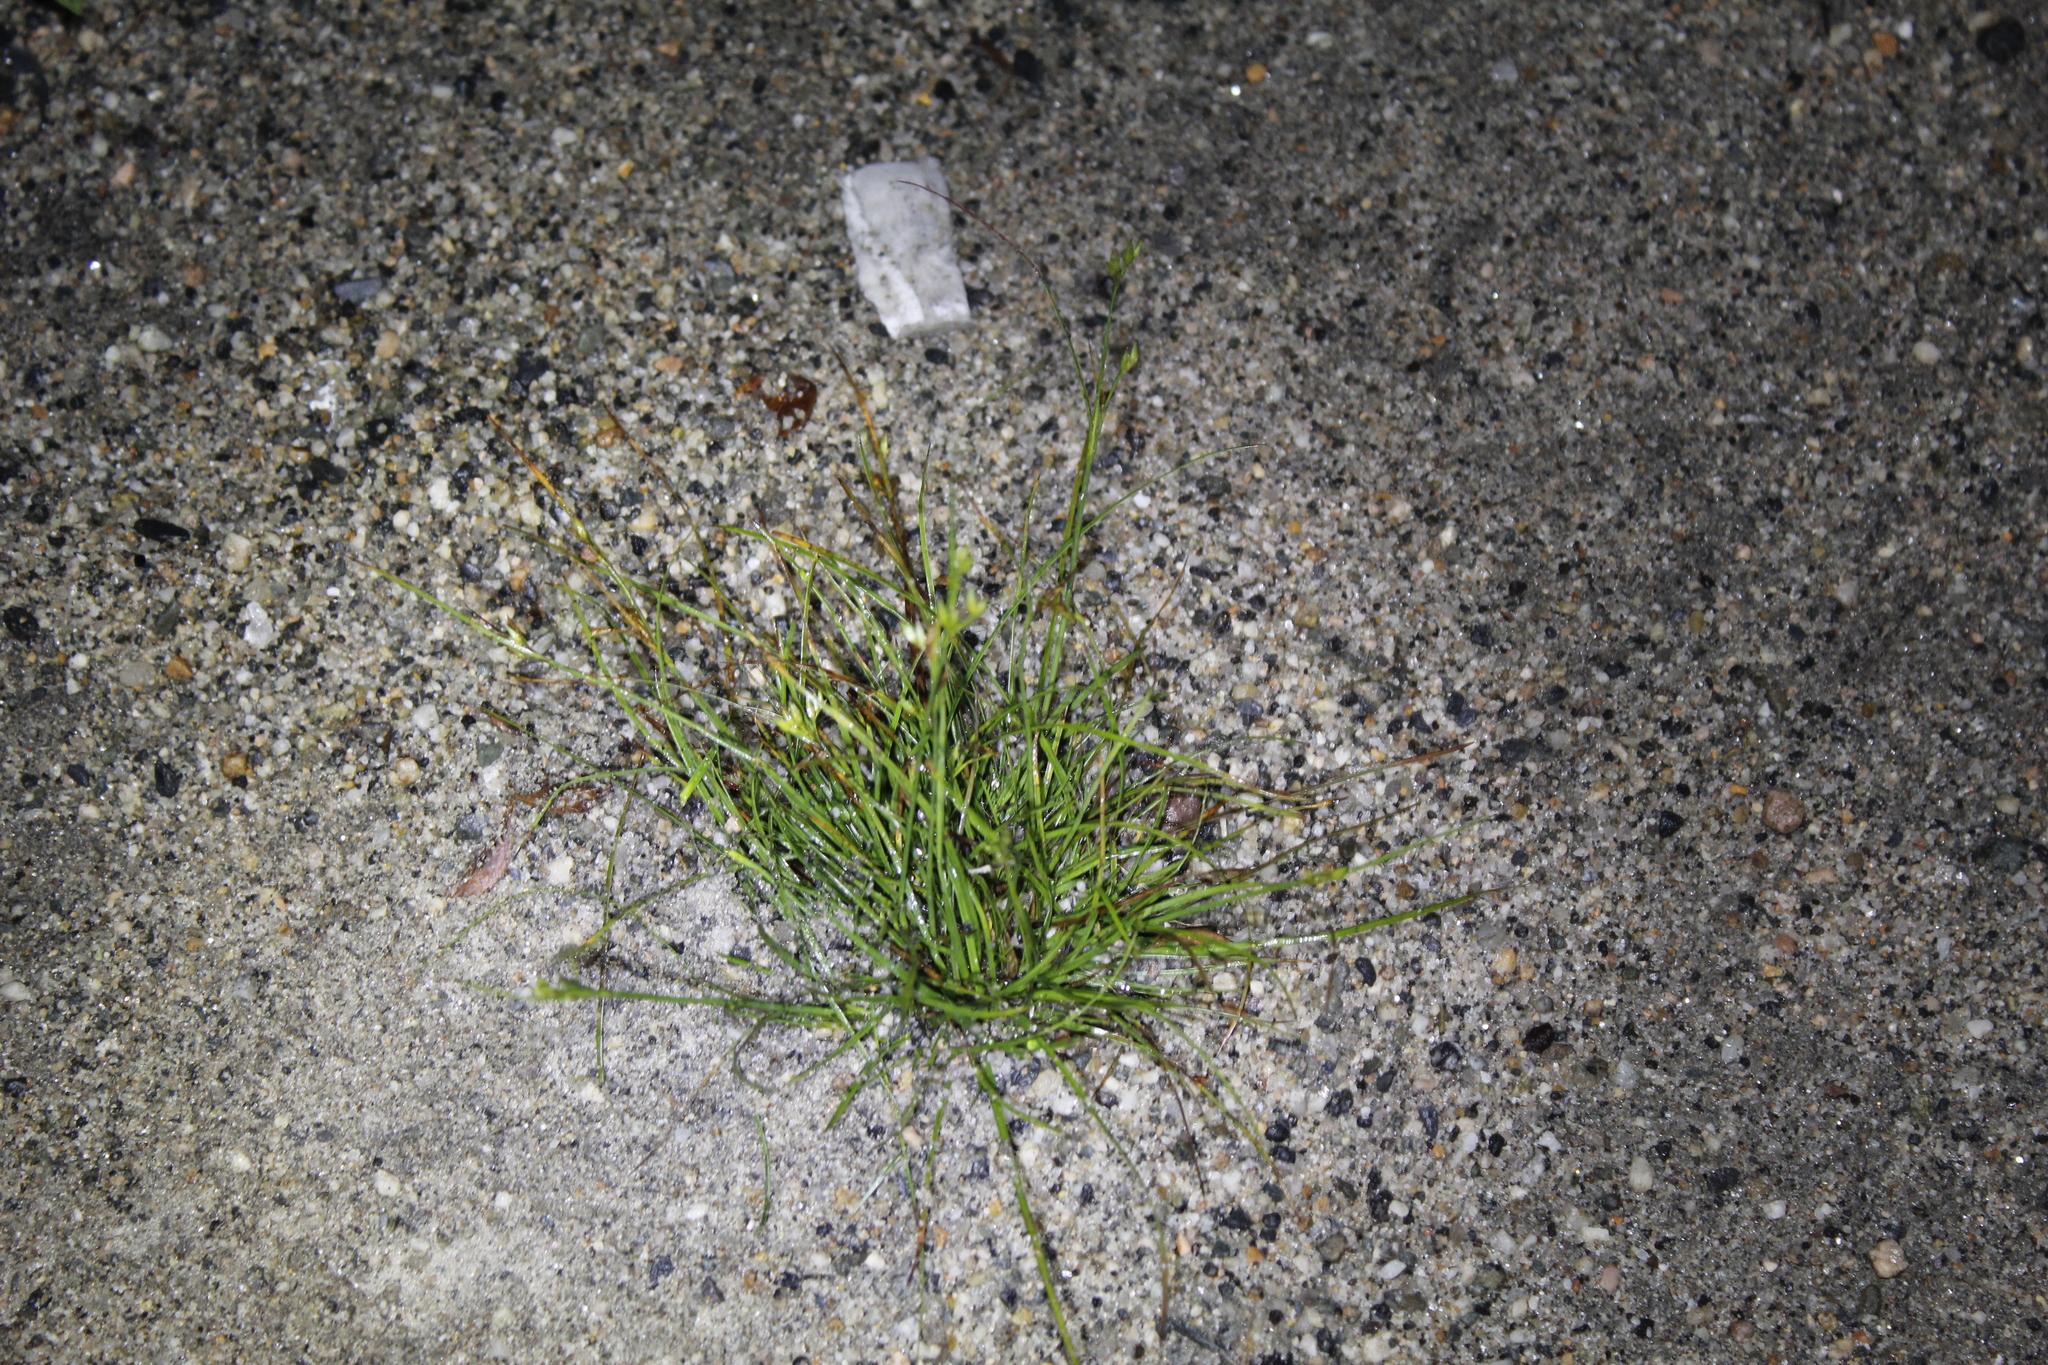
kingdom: Plantae
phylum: Tracheophyta
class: Liliopsida
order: Poales
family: Juncaceae
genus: Juncus
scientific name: Juncus tenuis
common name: Slender rush
